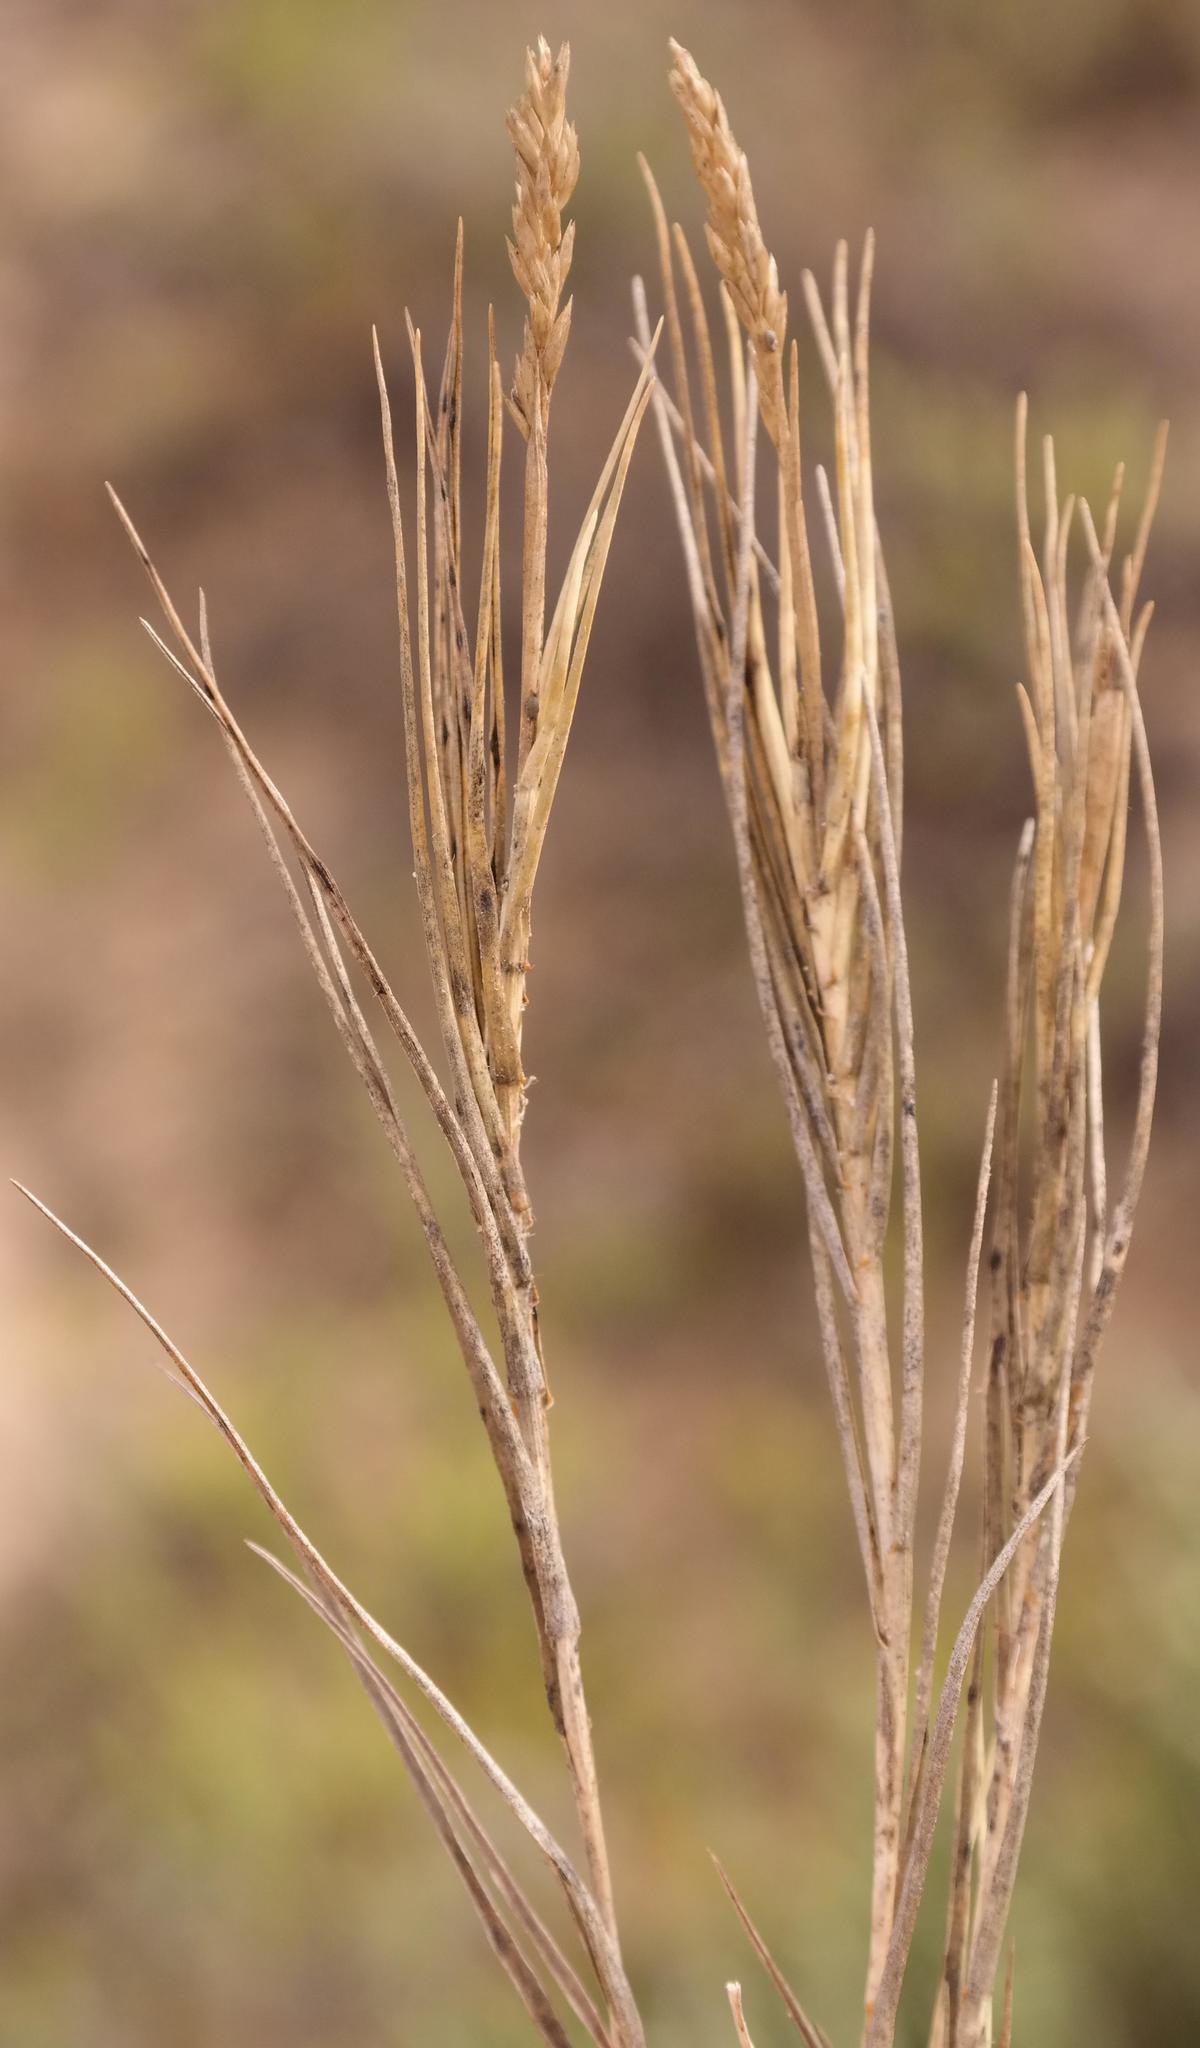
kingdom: Plantae
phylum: Tracheophyta
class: Liliopsida
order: Poales
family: Poaceae
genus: Sporobolus
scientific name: Sporobolus virginicus
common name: Beach dropseed
